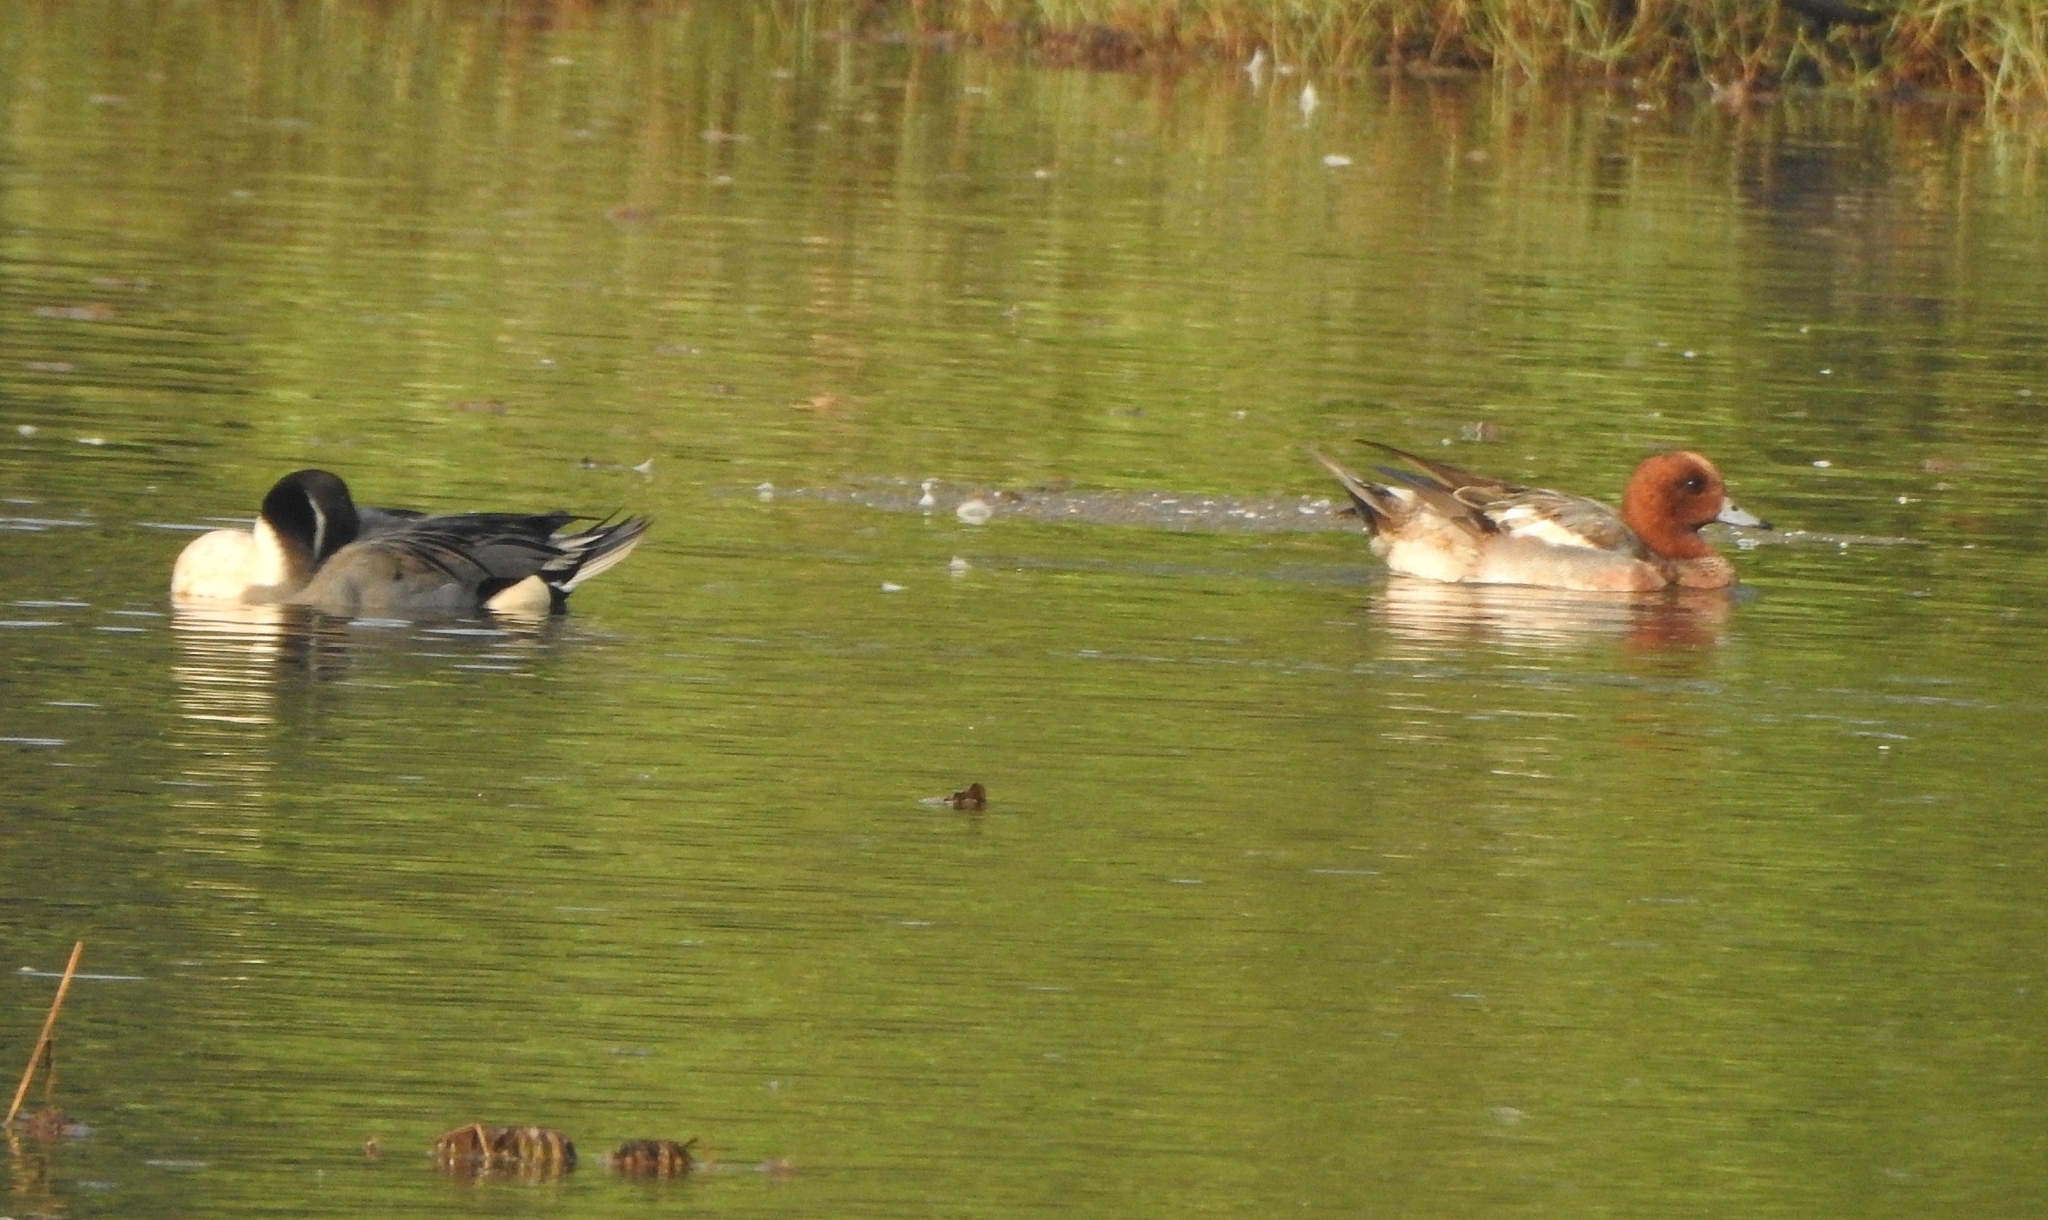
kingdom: Animalia
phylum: Chordata
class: Aves
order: Anseriformes
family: Anatidae
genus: Anas
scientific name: Anas acuta
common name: Northern pintail
